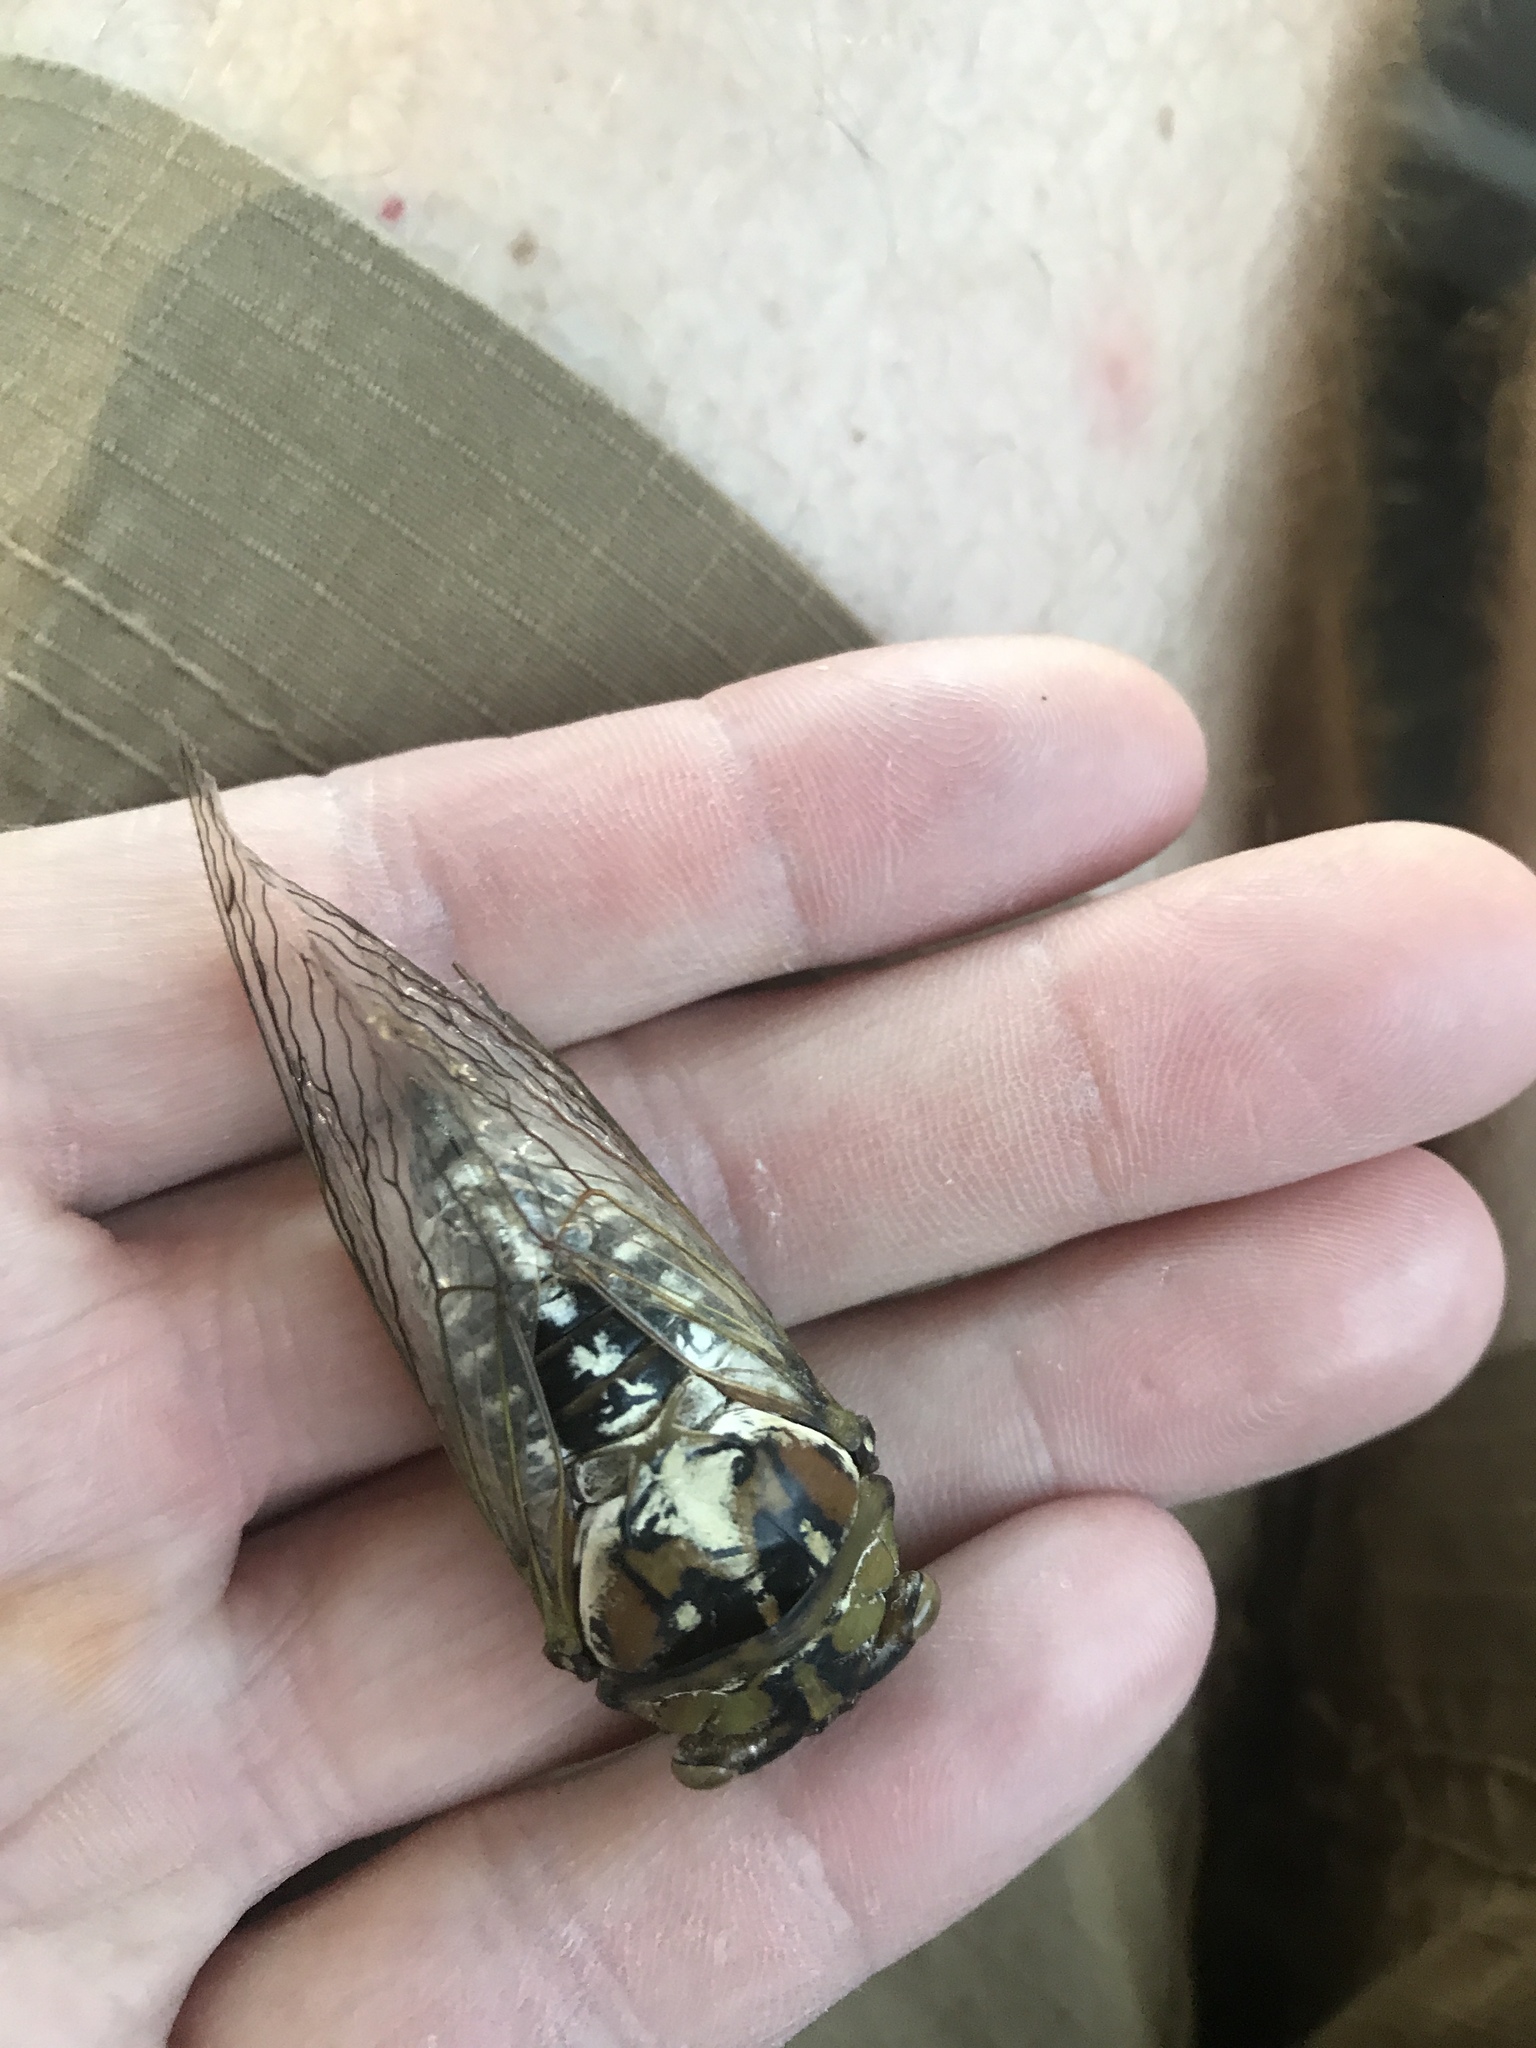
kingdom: Animalia
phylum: Arthropoda
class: Insecta
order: Hemiptera
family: Cicadidae
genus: Megatibicen
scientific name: Megatibicen dealbatus
